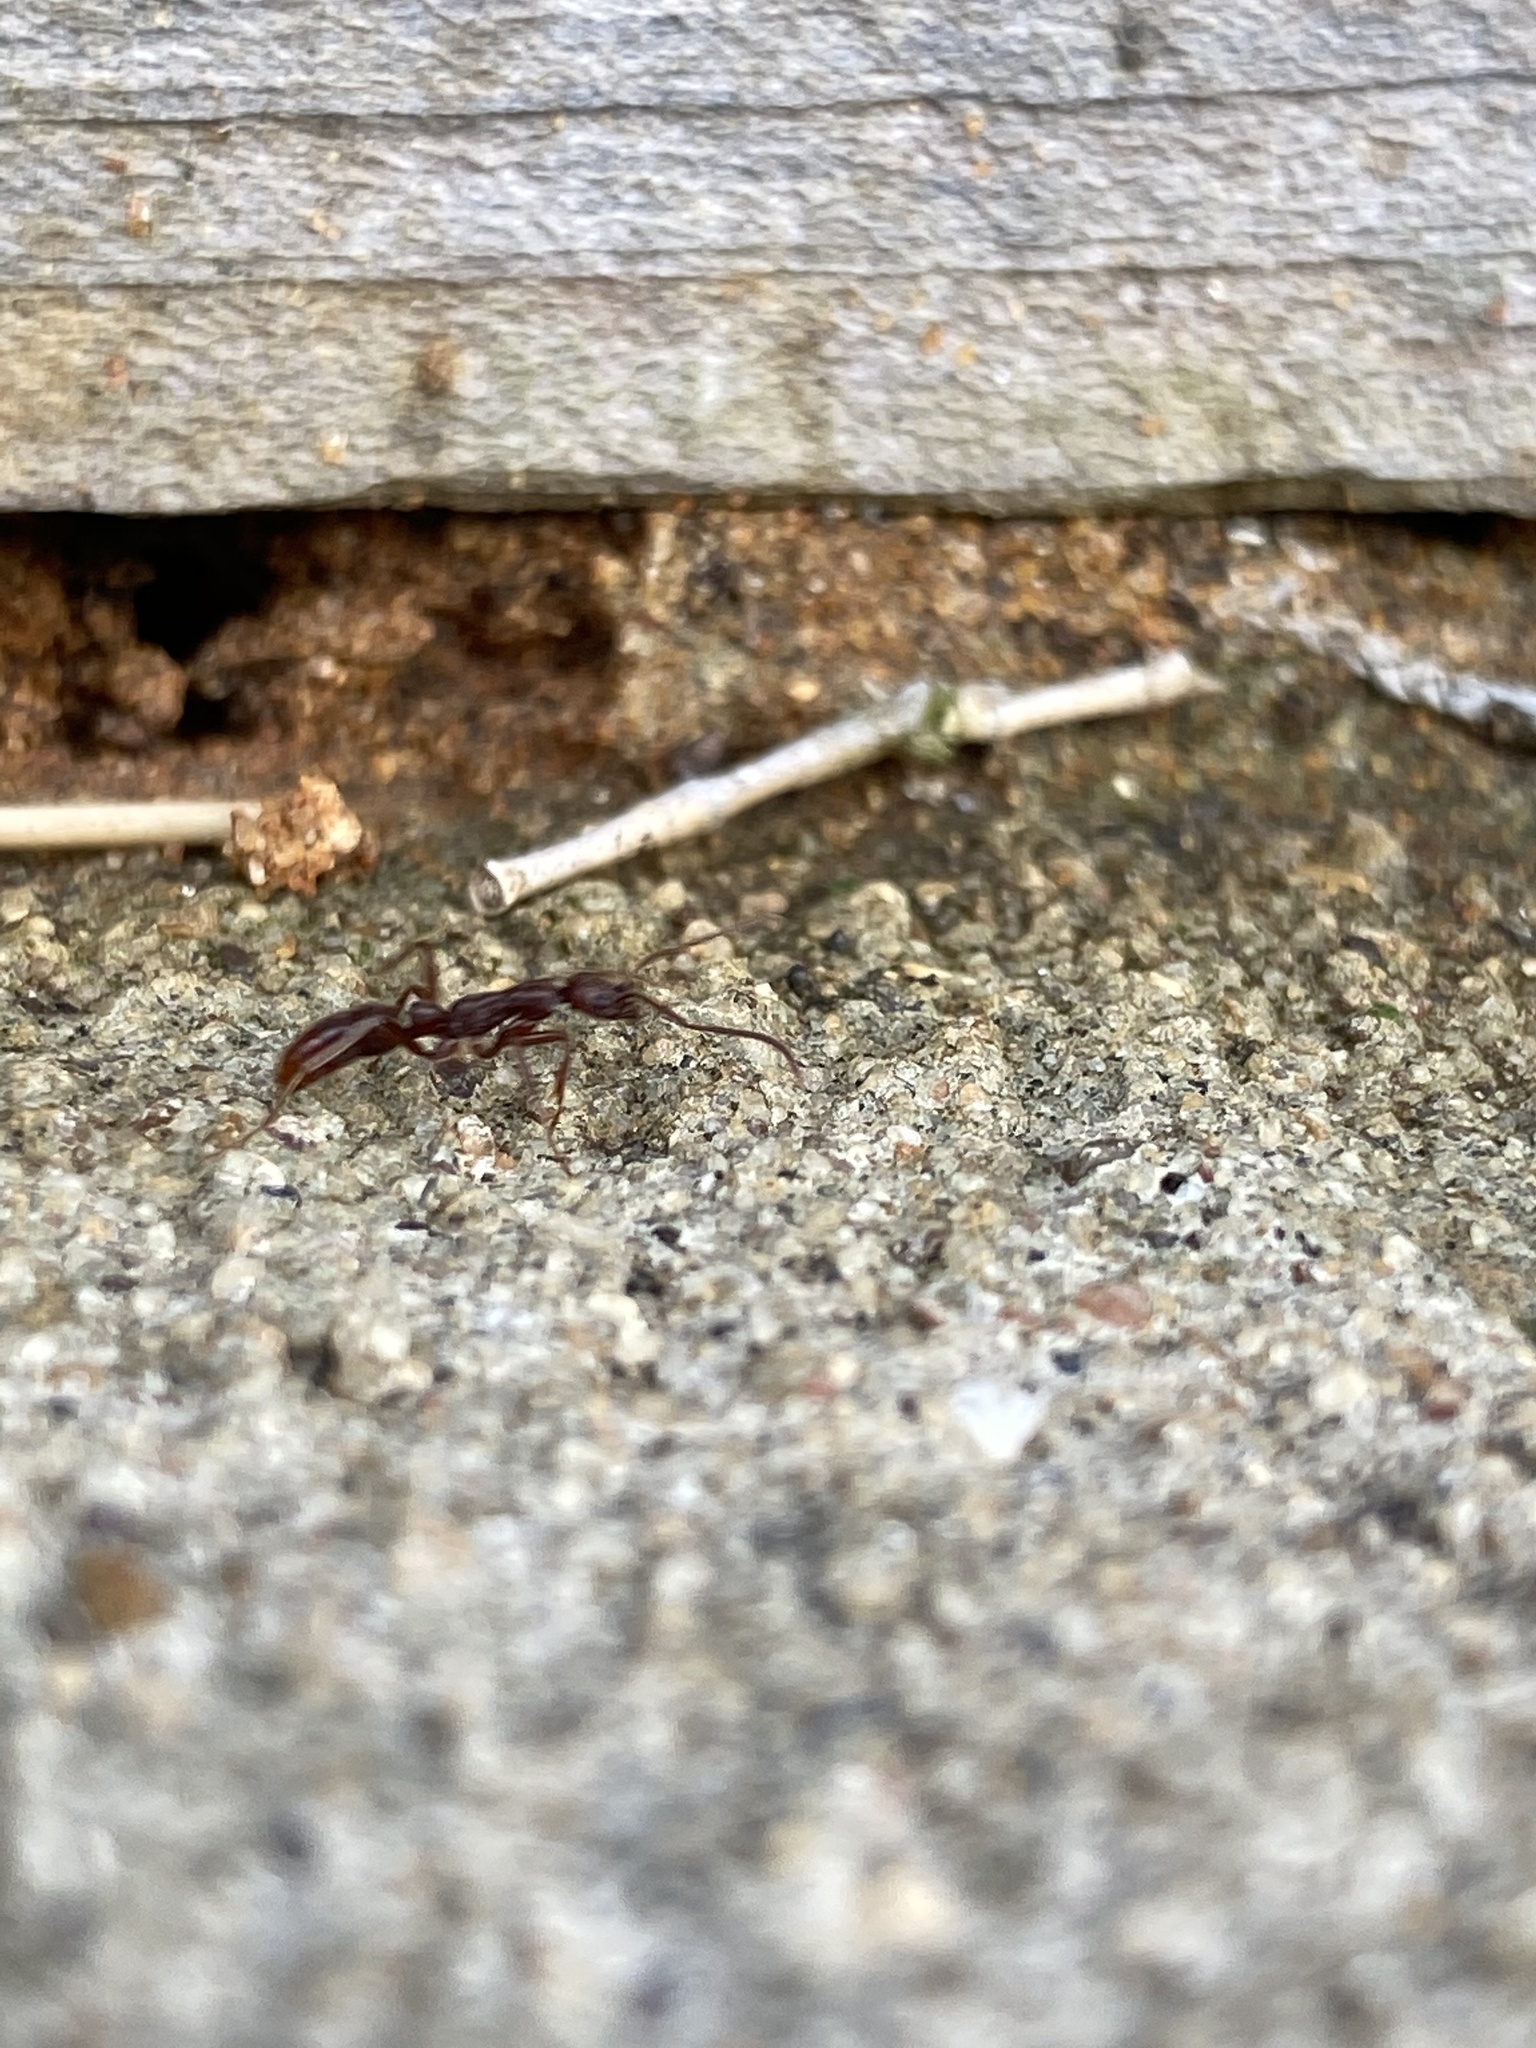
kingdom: Animalia
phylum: Arthropoda
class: Insecta
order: Hymenoptera
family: Formicidae
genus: Leptogenys
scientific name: Leptogenys elongata
